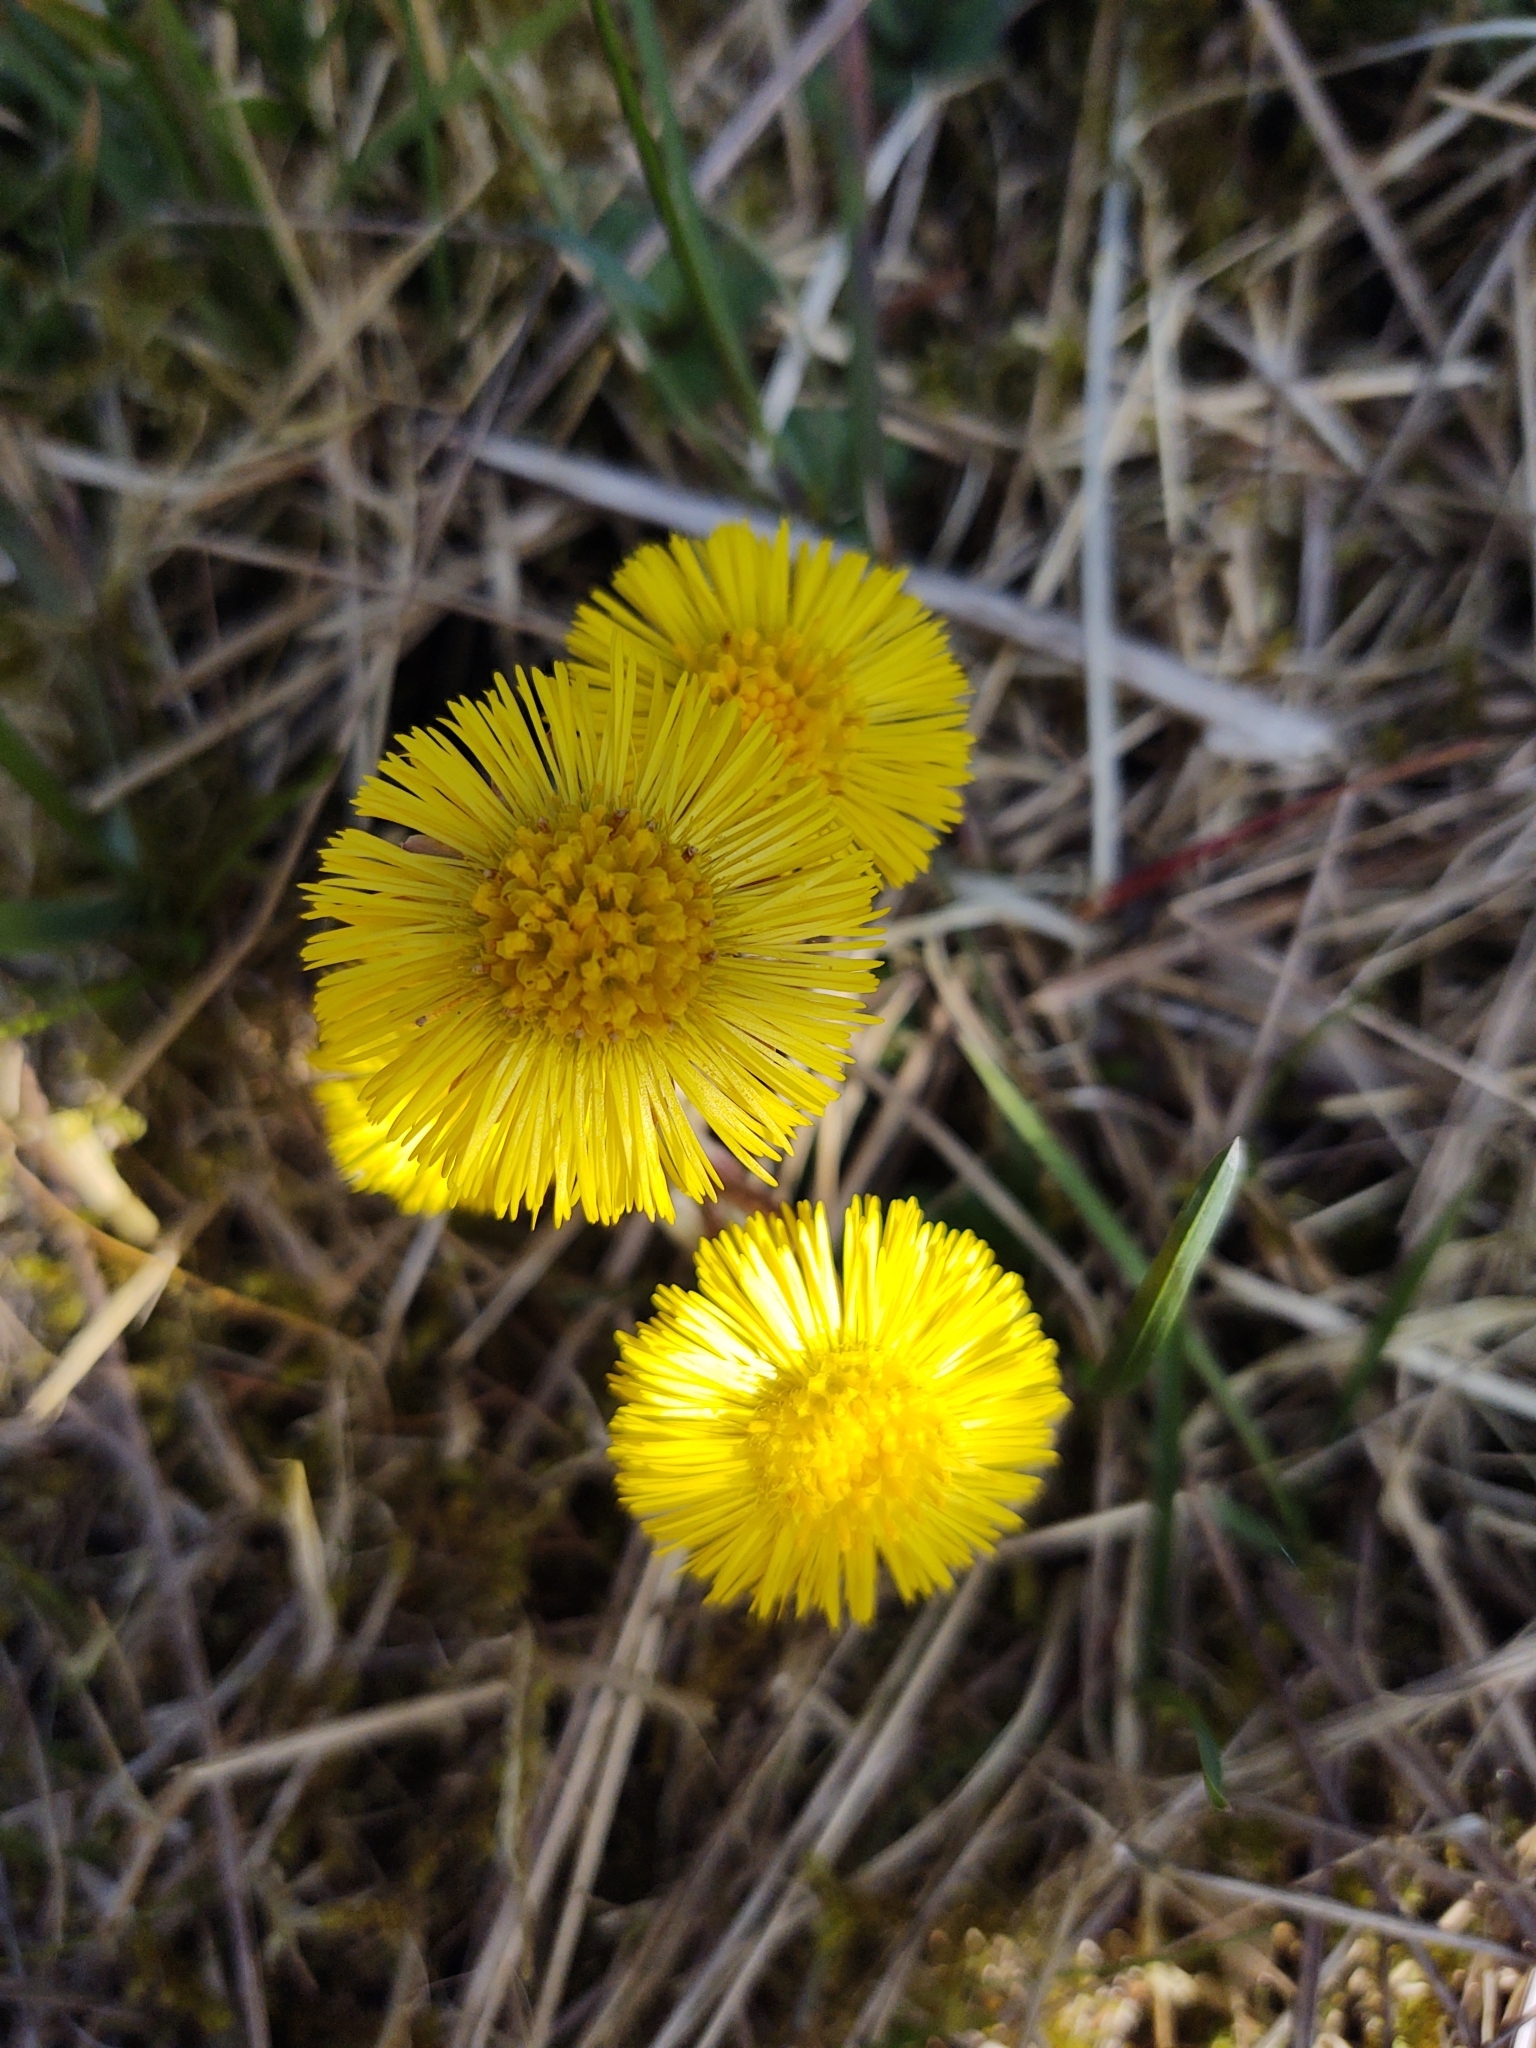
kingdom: Plantae
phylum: Tracheophyta
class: Magnoliopsida
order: Asterales
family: Asteraceae
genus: Tussilago
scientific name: Tussilago farfara
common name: Coltsfoot
